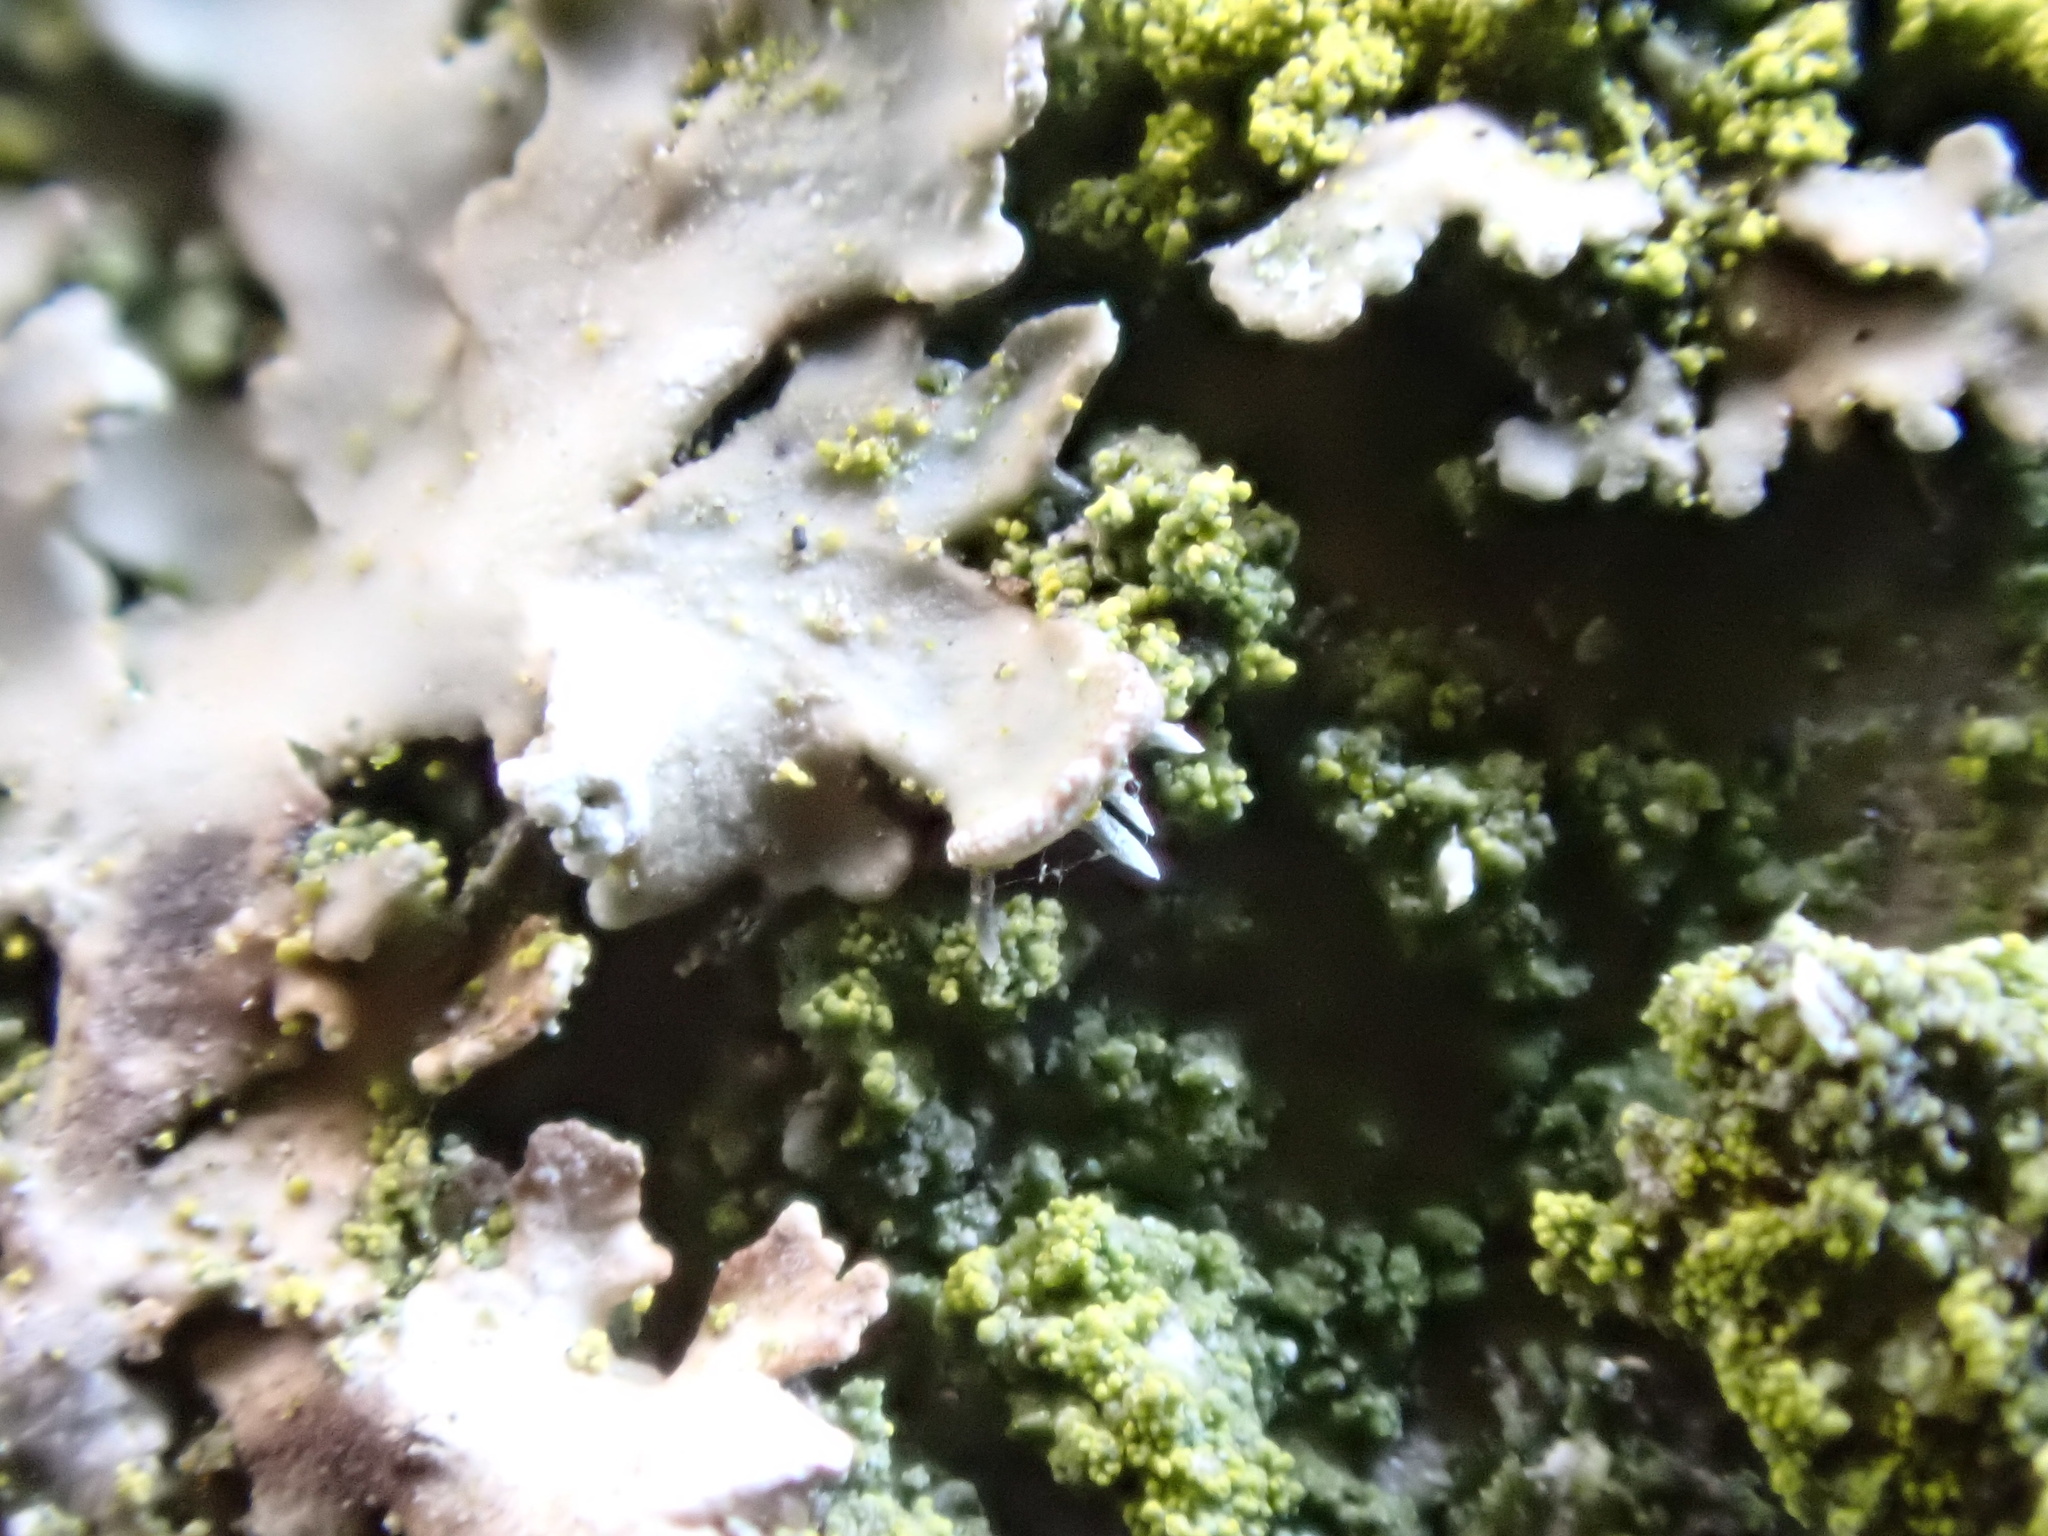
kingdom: Fungi
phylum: Ascomycota
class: Lecanoromycetes
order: Caliciales
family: Physciaceae
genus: Poeltonia
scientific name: Poeltonia grisea
